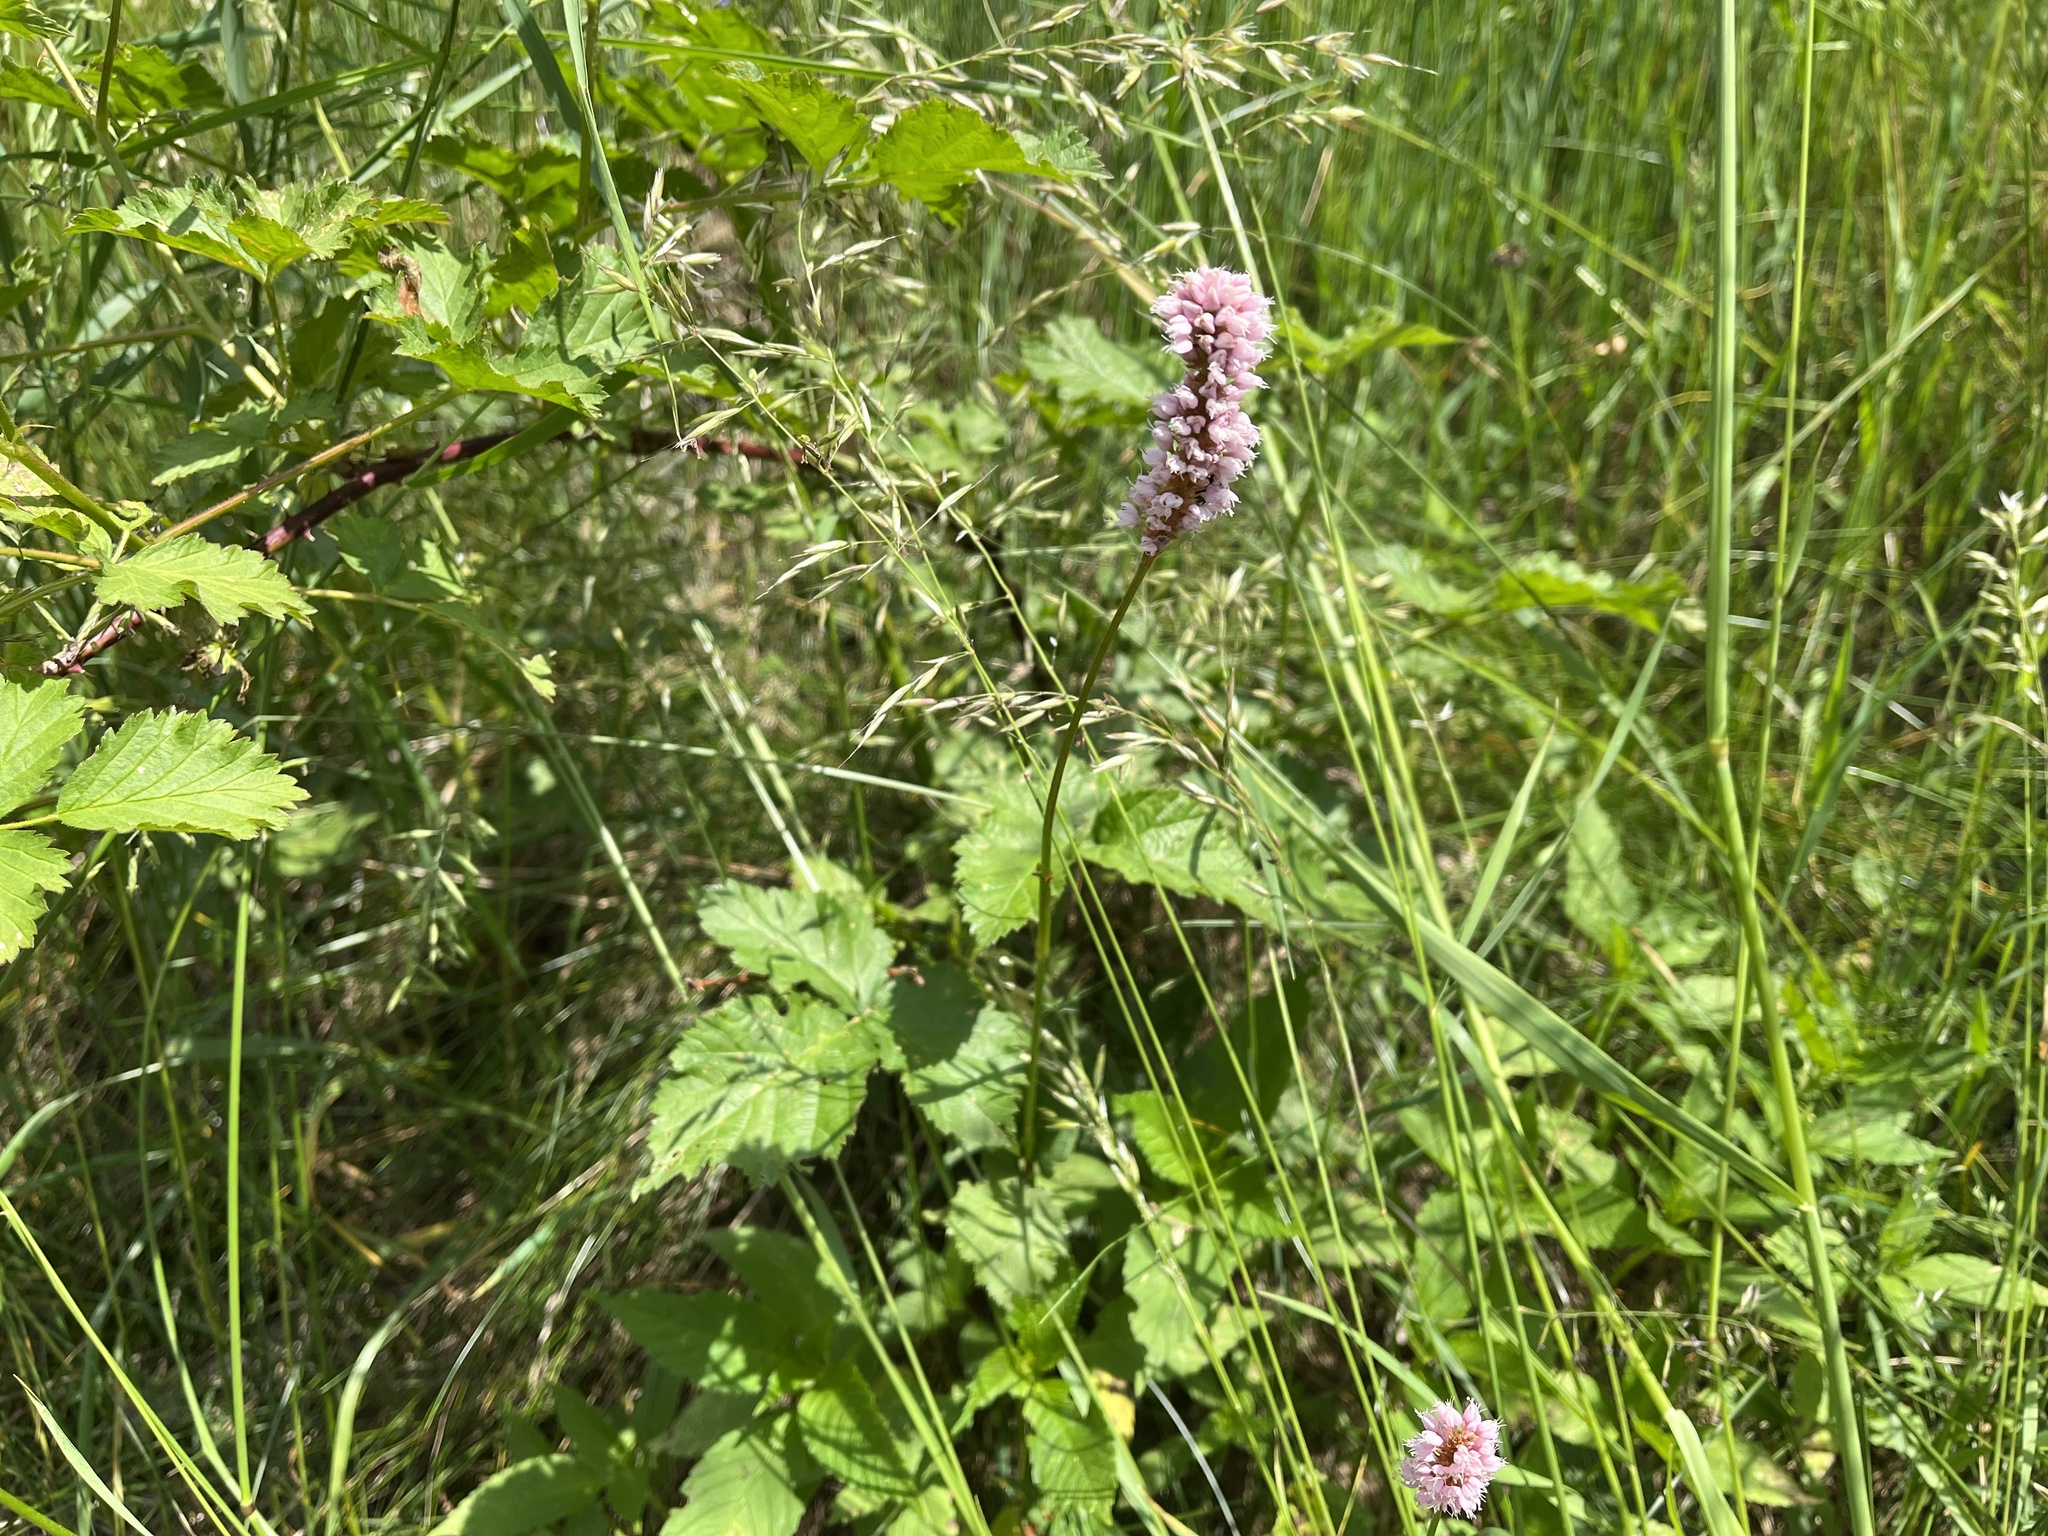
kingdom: Plantae
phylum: Tracheophyta
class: Magnoliopsida
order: Caryophyllales
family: Polygonaceae
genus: Bistorta
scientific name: Bistorta officinalis
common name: Common bistort
